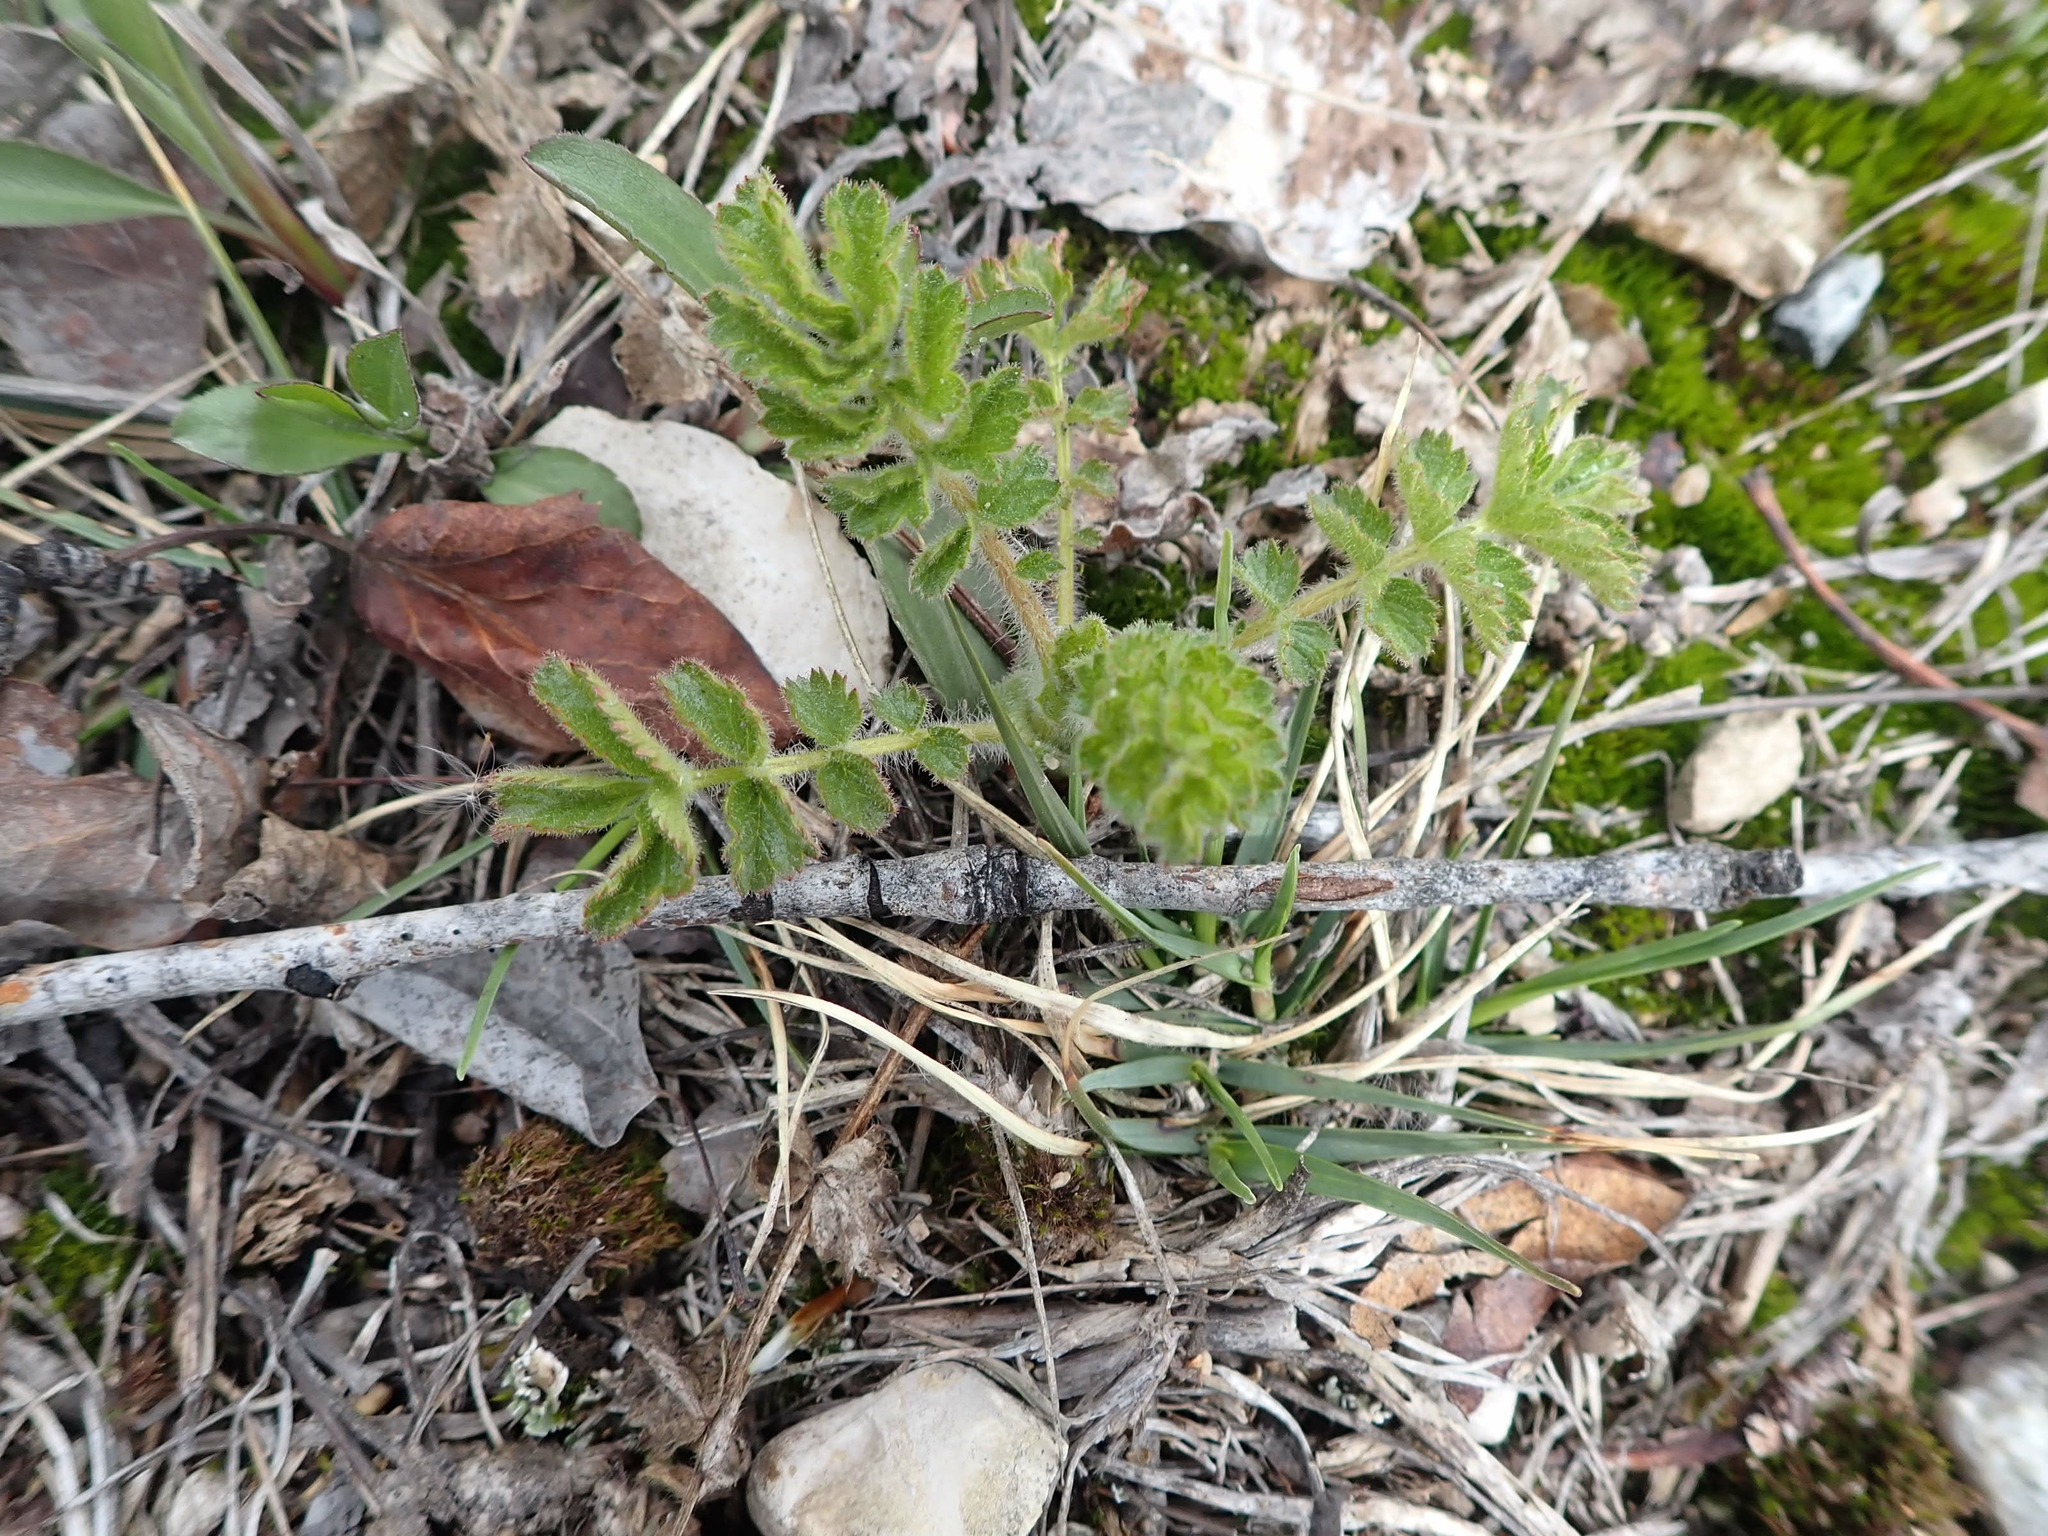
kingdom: Plantae
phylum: Tracheophyta
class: Magnoliopsida
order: Rosales
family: Rosaceae
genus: Drymocallis
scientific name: Drymocallis arguta
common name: Tall cinquefoil
